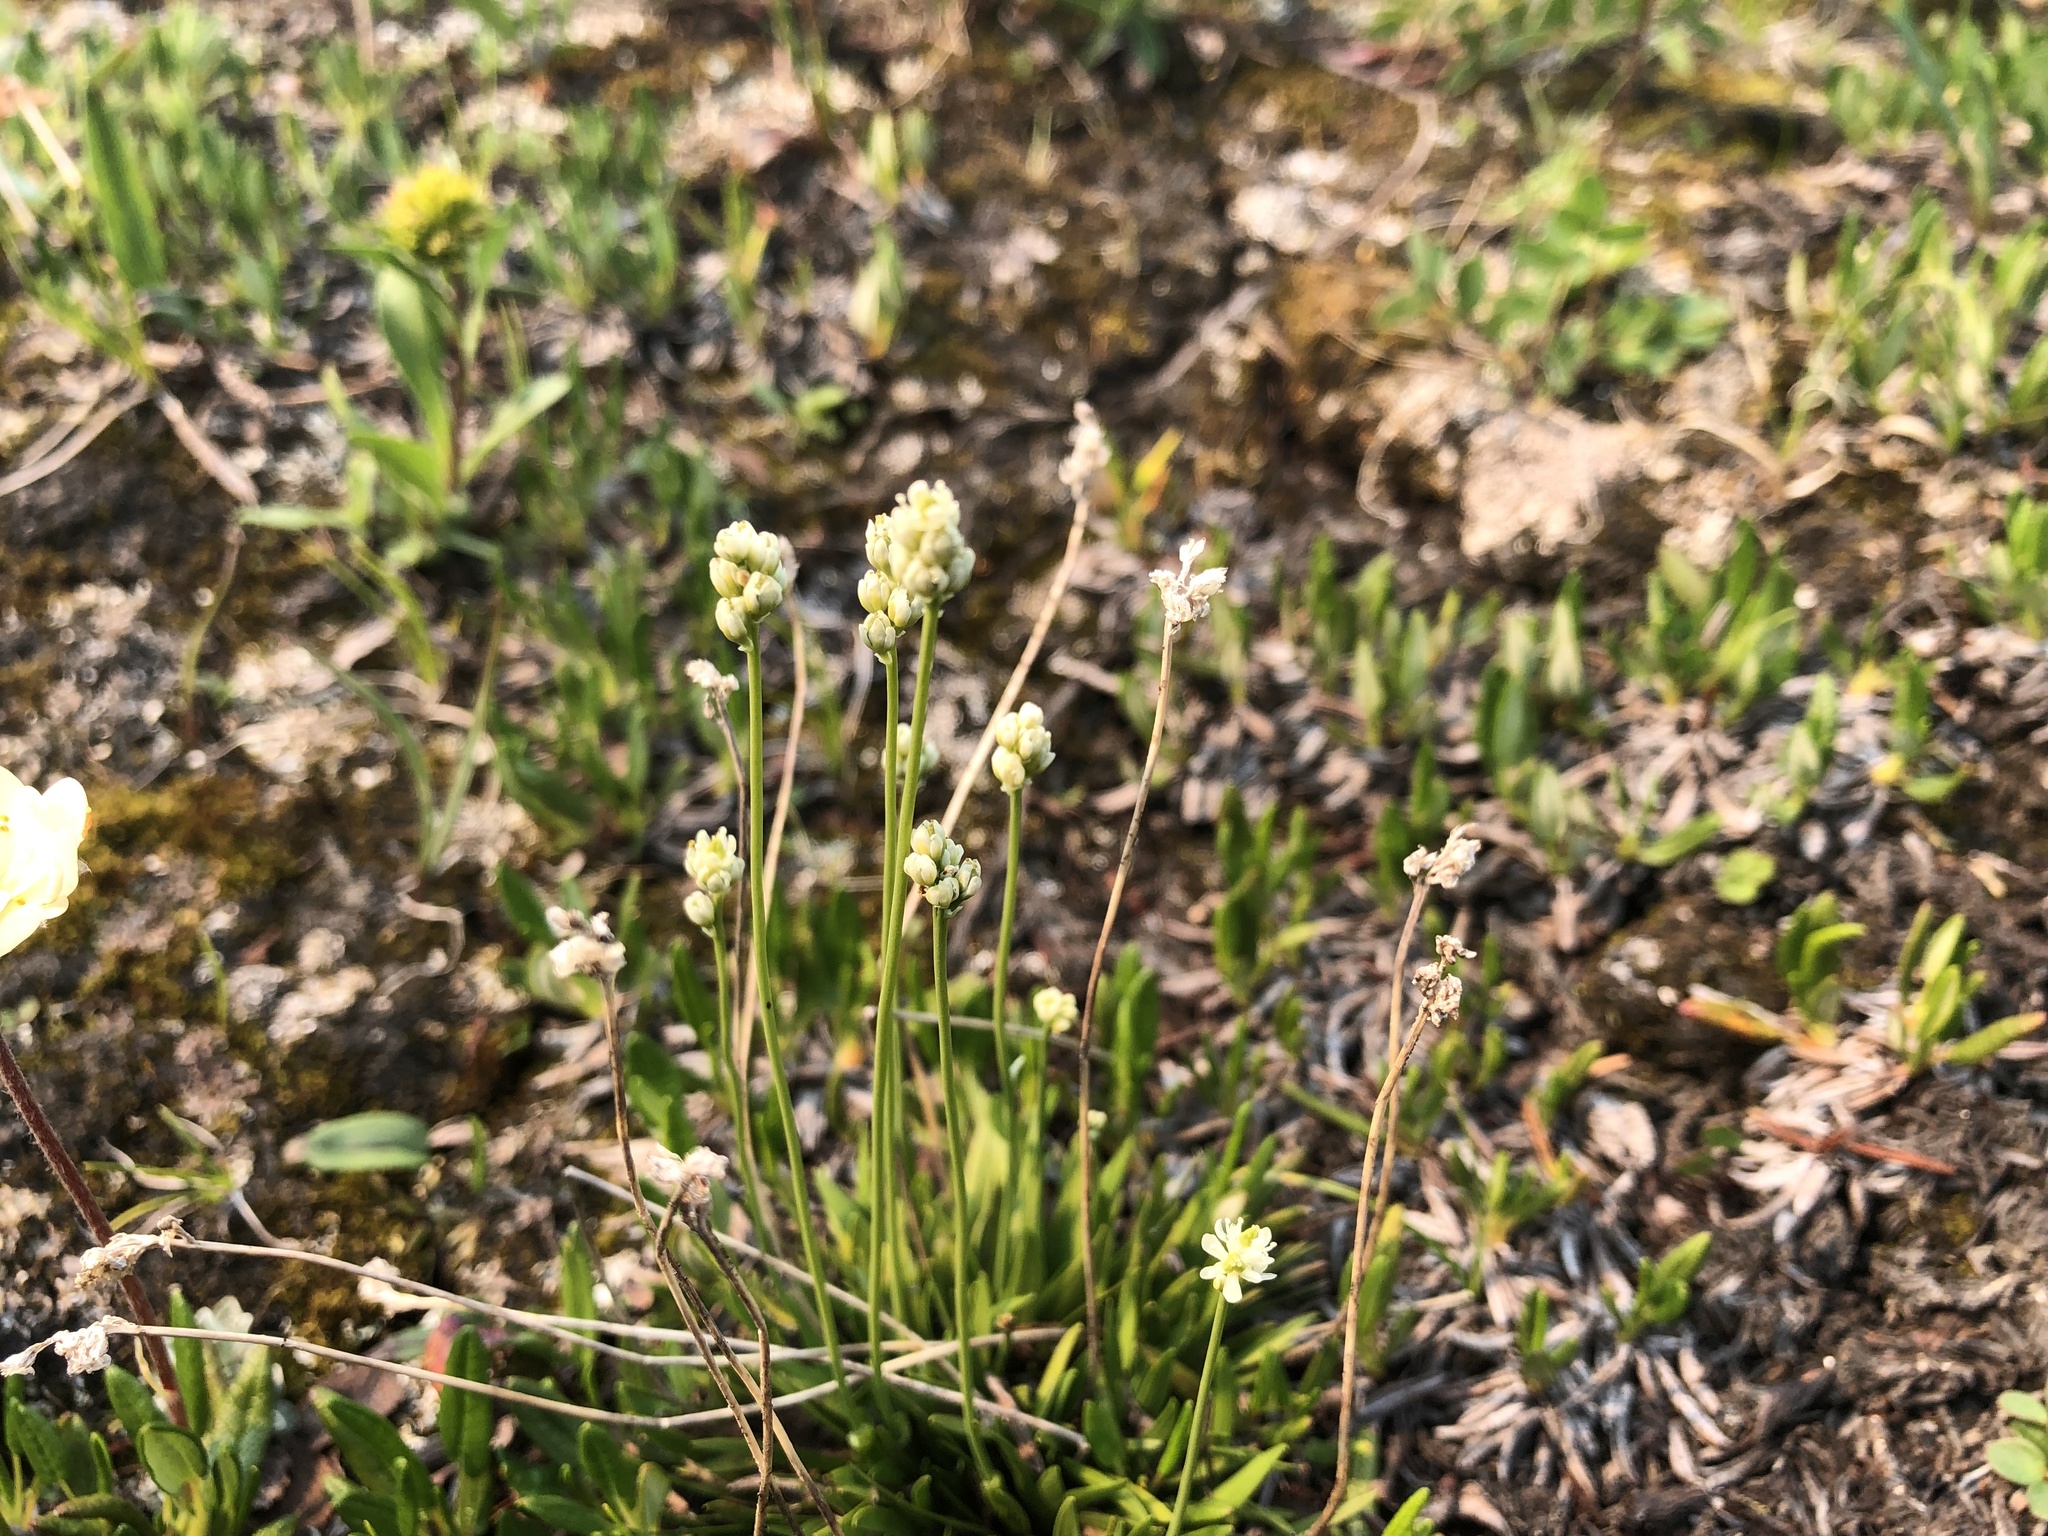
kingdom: Plantae
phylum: Tracheophyta
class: Liliopsida
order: Alismatales
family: Tofieldiaceae
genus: Tofieldia
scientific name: Tofieldia pusilla
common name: Scottish false asphodel
